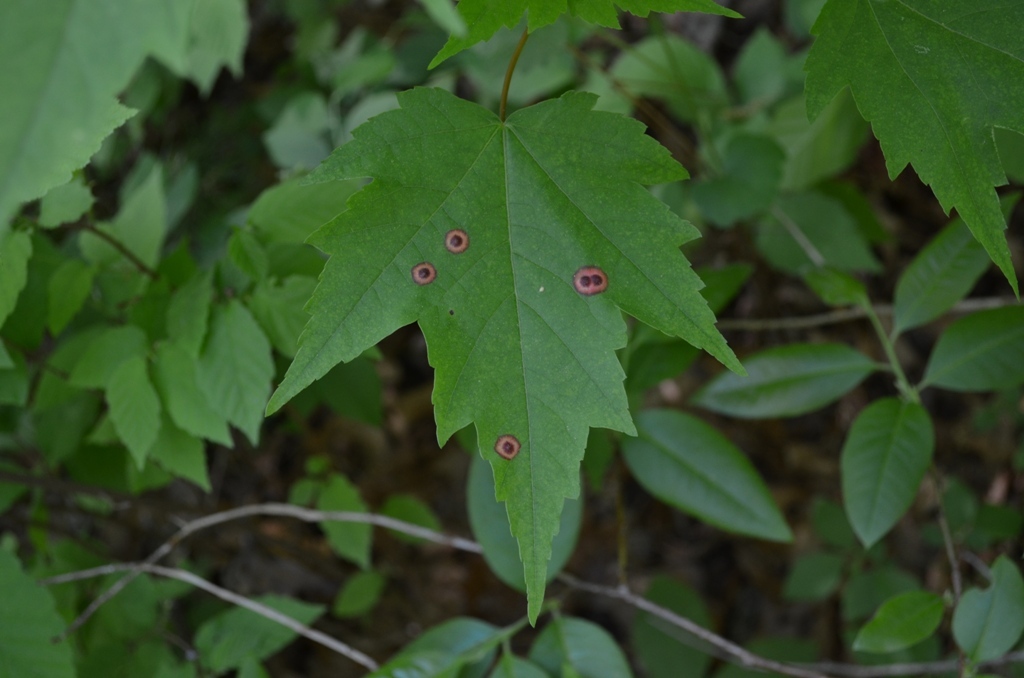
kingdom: Animalia
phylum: Arthropoda
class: Insecta
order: Diptera
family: Cecidomyiidae
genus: Acericecis
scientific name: Acericecis ocellaris
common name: Ocellate gall midge
